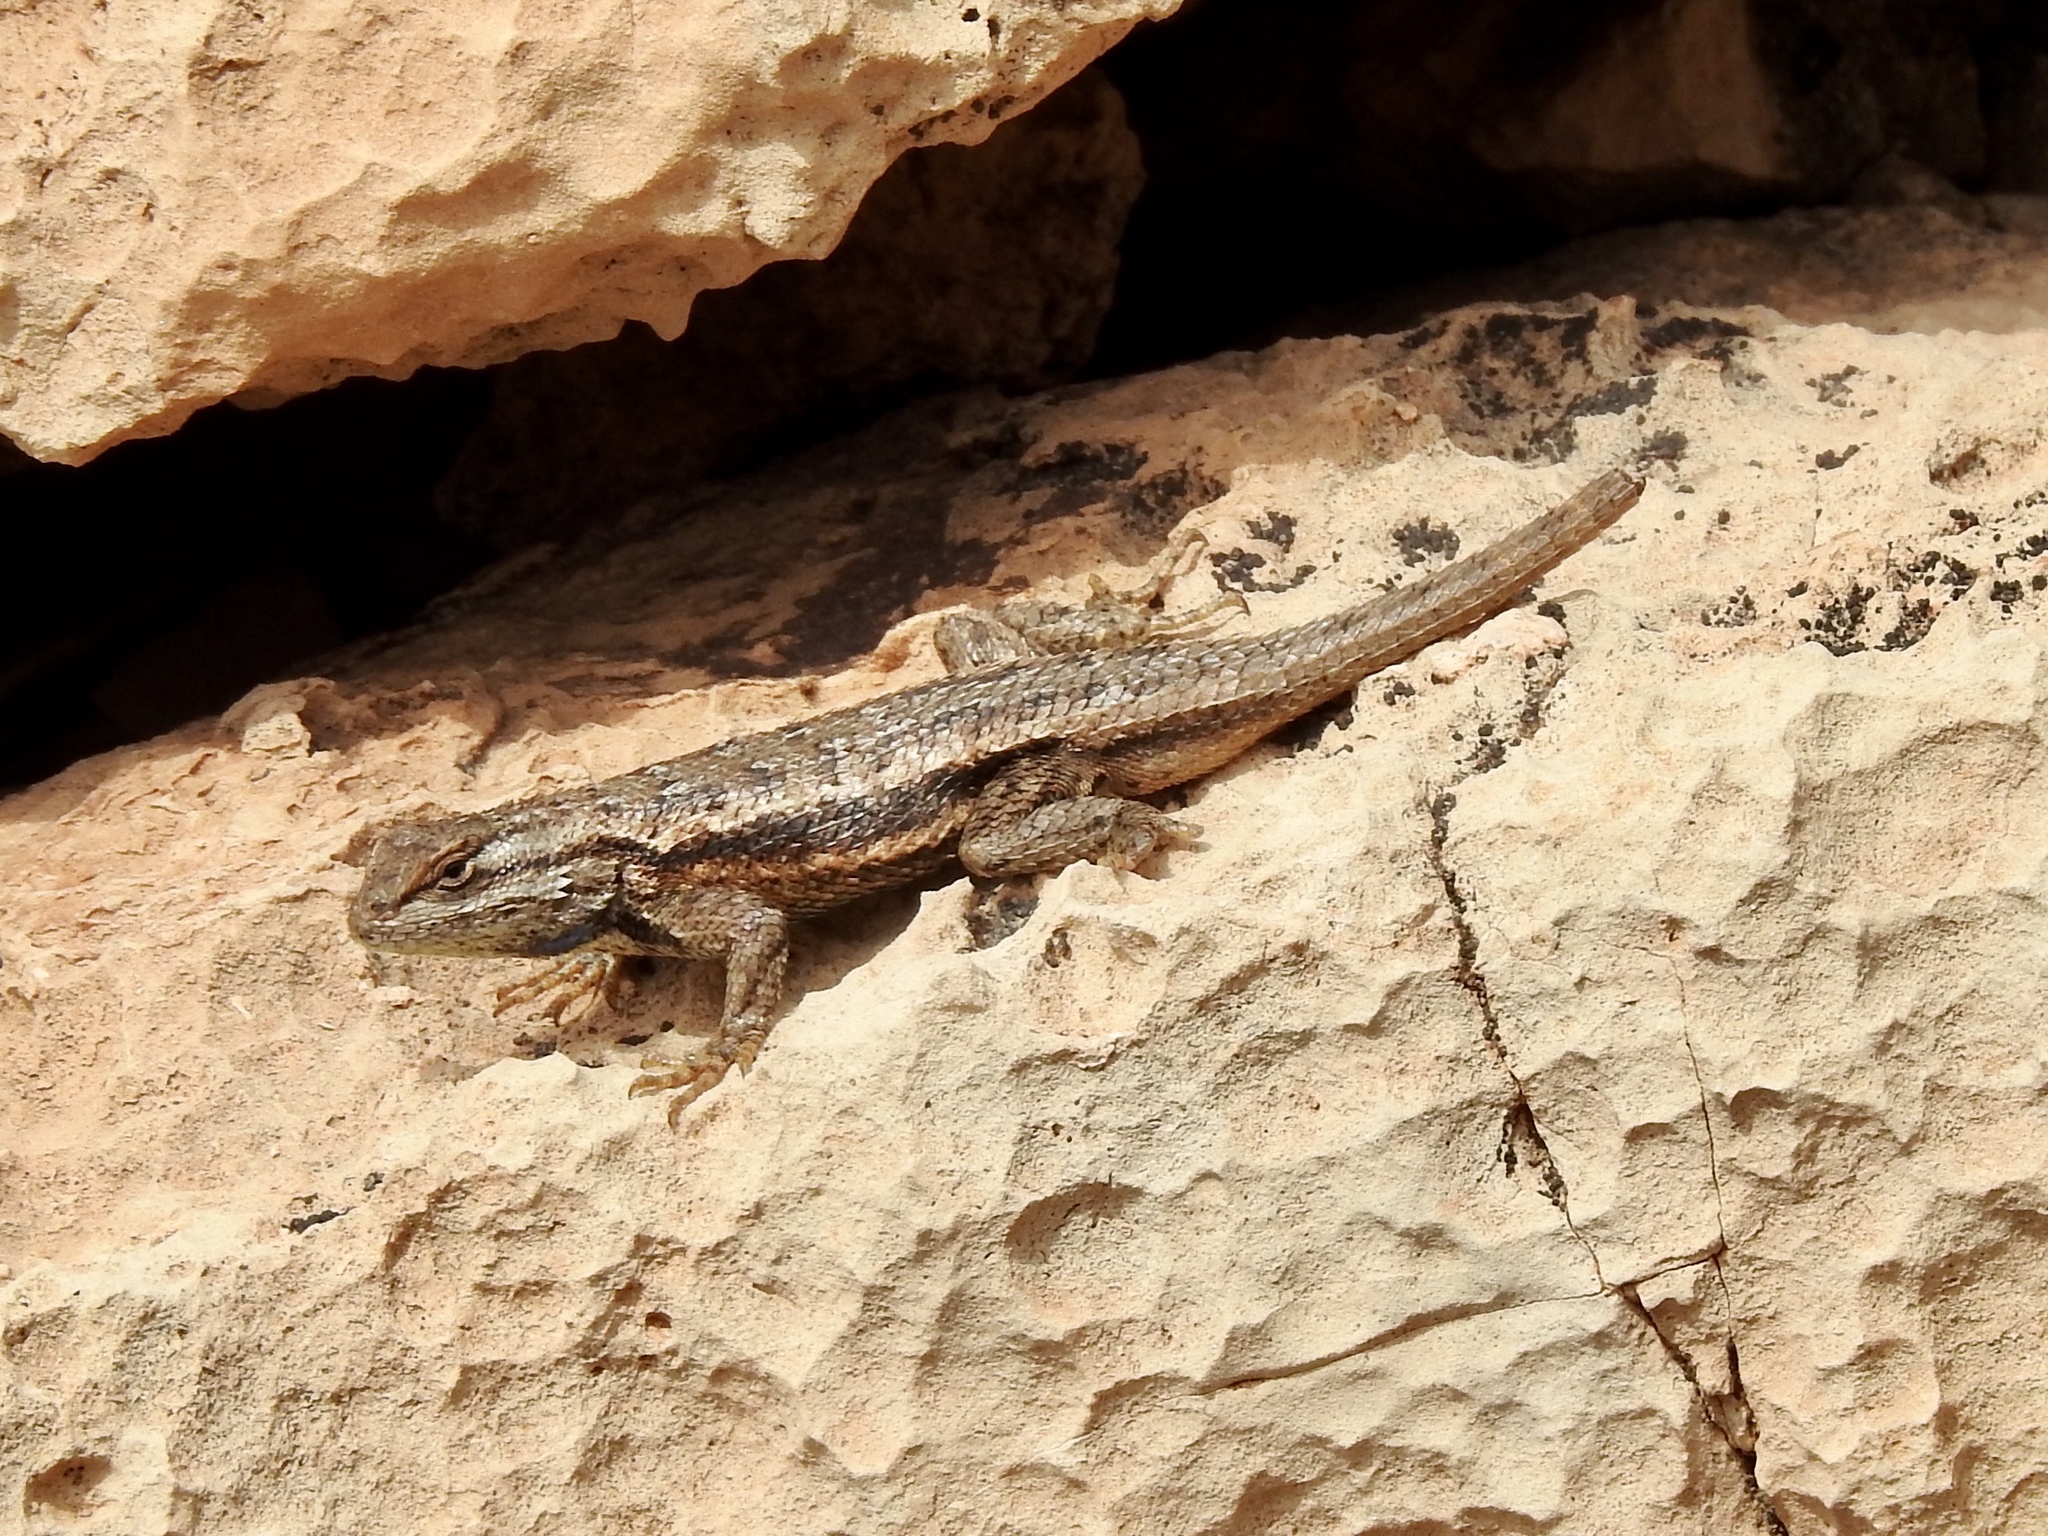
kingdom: Animalia
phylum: Chordata
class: Squamata
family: Phrynosomatidae
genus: Sceloporus
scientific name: Sceloporus tristichus
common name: Plateau fence lizard
